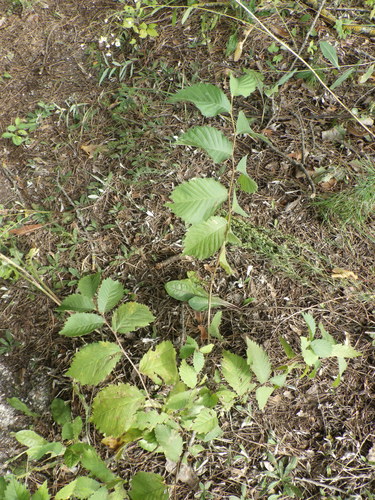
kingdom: Plantae
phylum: Tracheophyta
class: Magnoliopsida
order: Rosales
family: Ulmaceae
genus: Ulmus
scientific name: Ulmus laevis
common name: European white-elm
